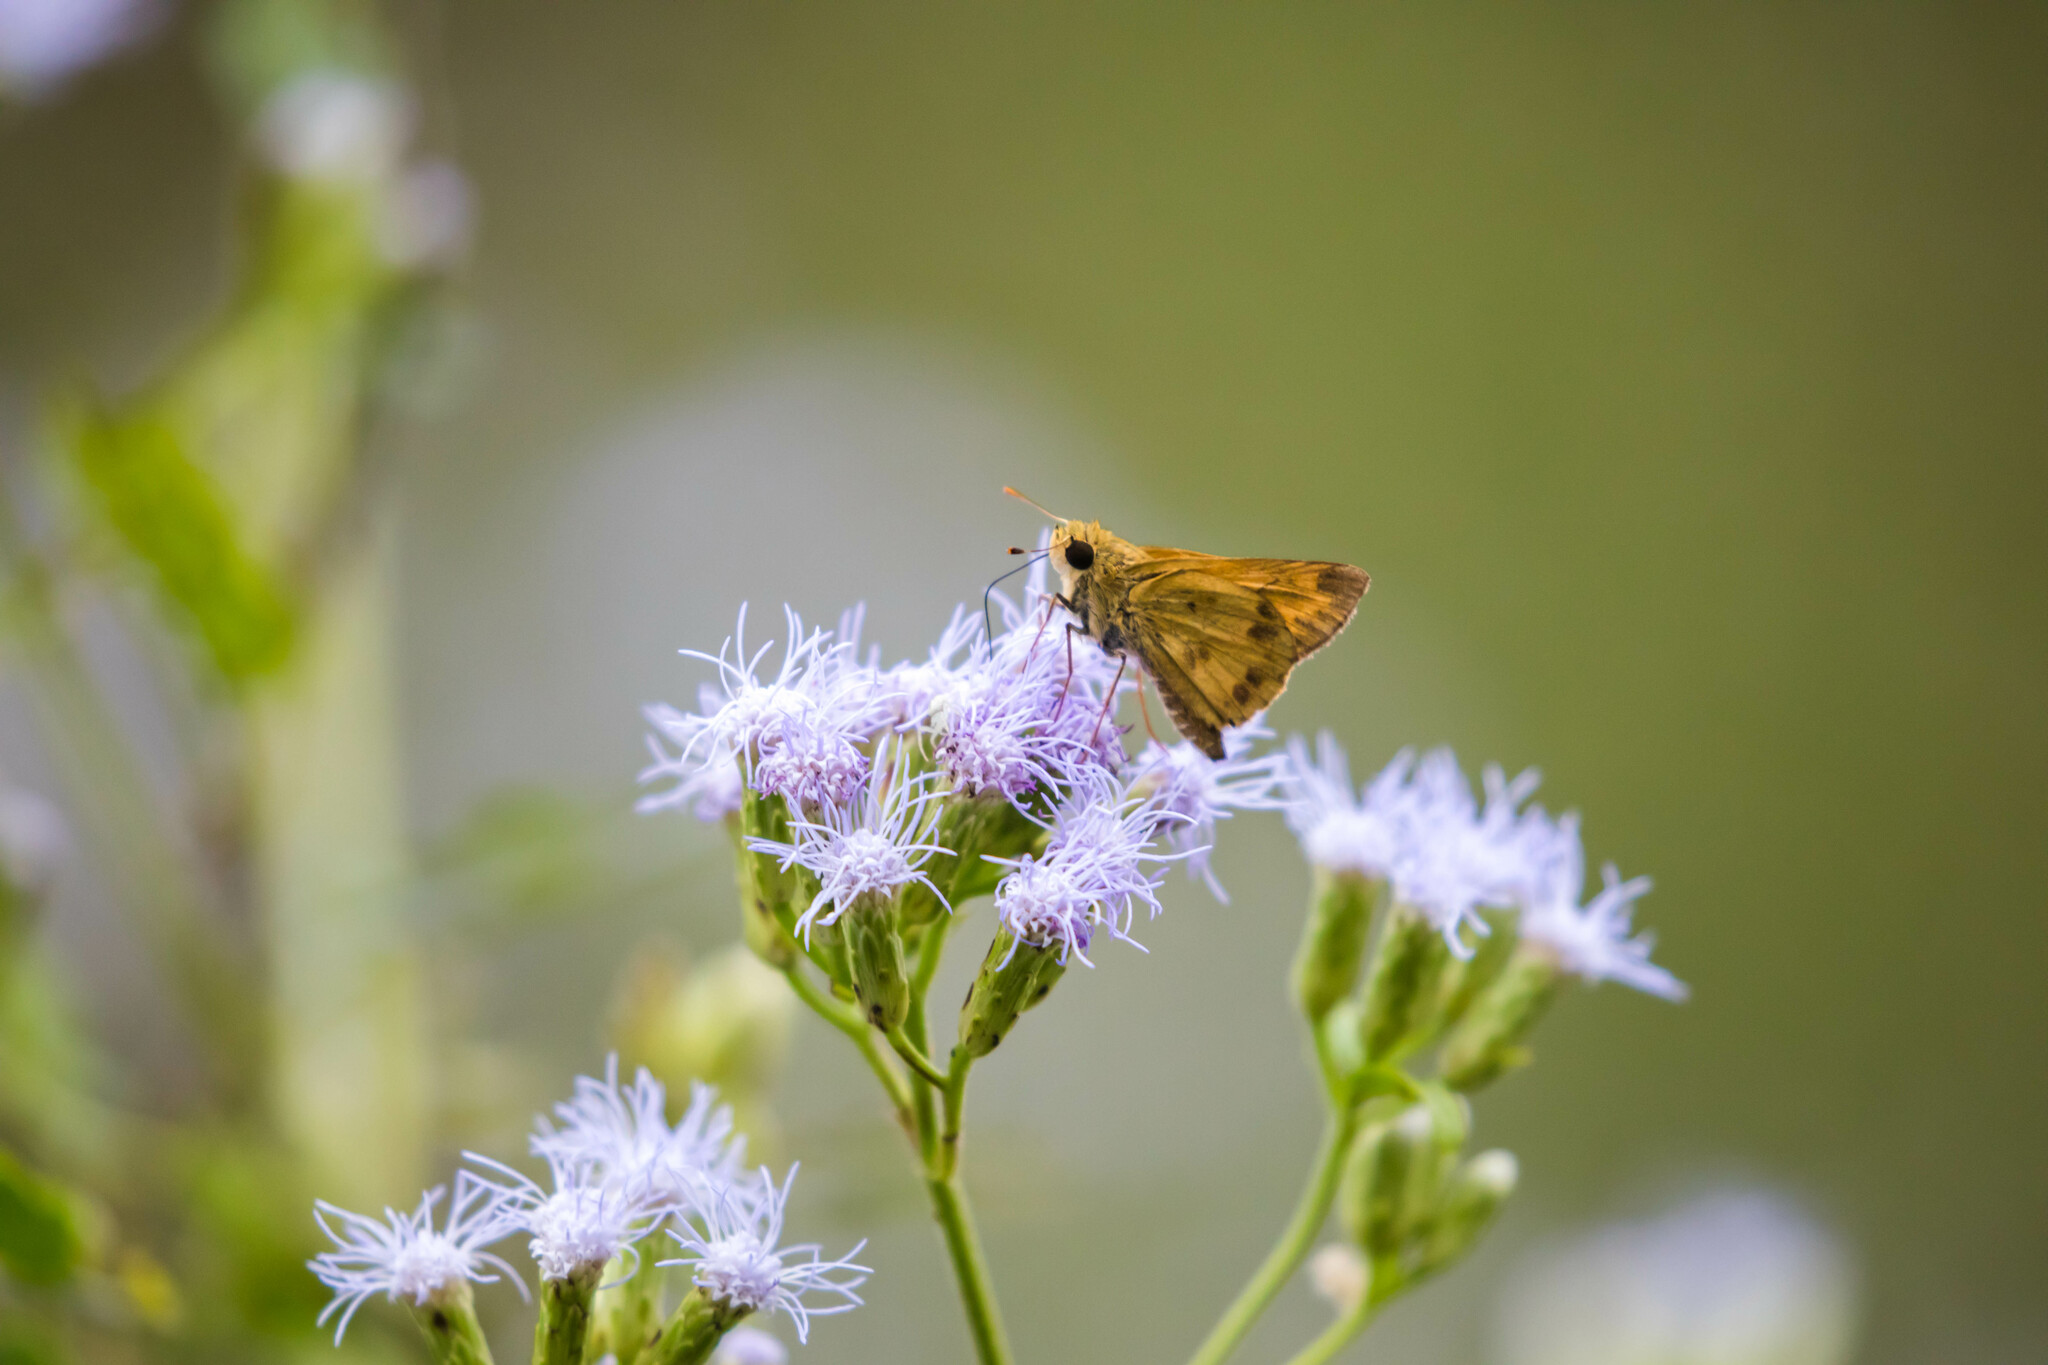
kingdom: Animalia
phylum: Arthropoda
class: Insecta
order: Lepidoptera
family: Hesperiidae
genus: Polites
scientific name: Polites vibex
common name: Whirlabout
